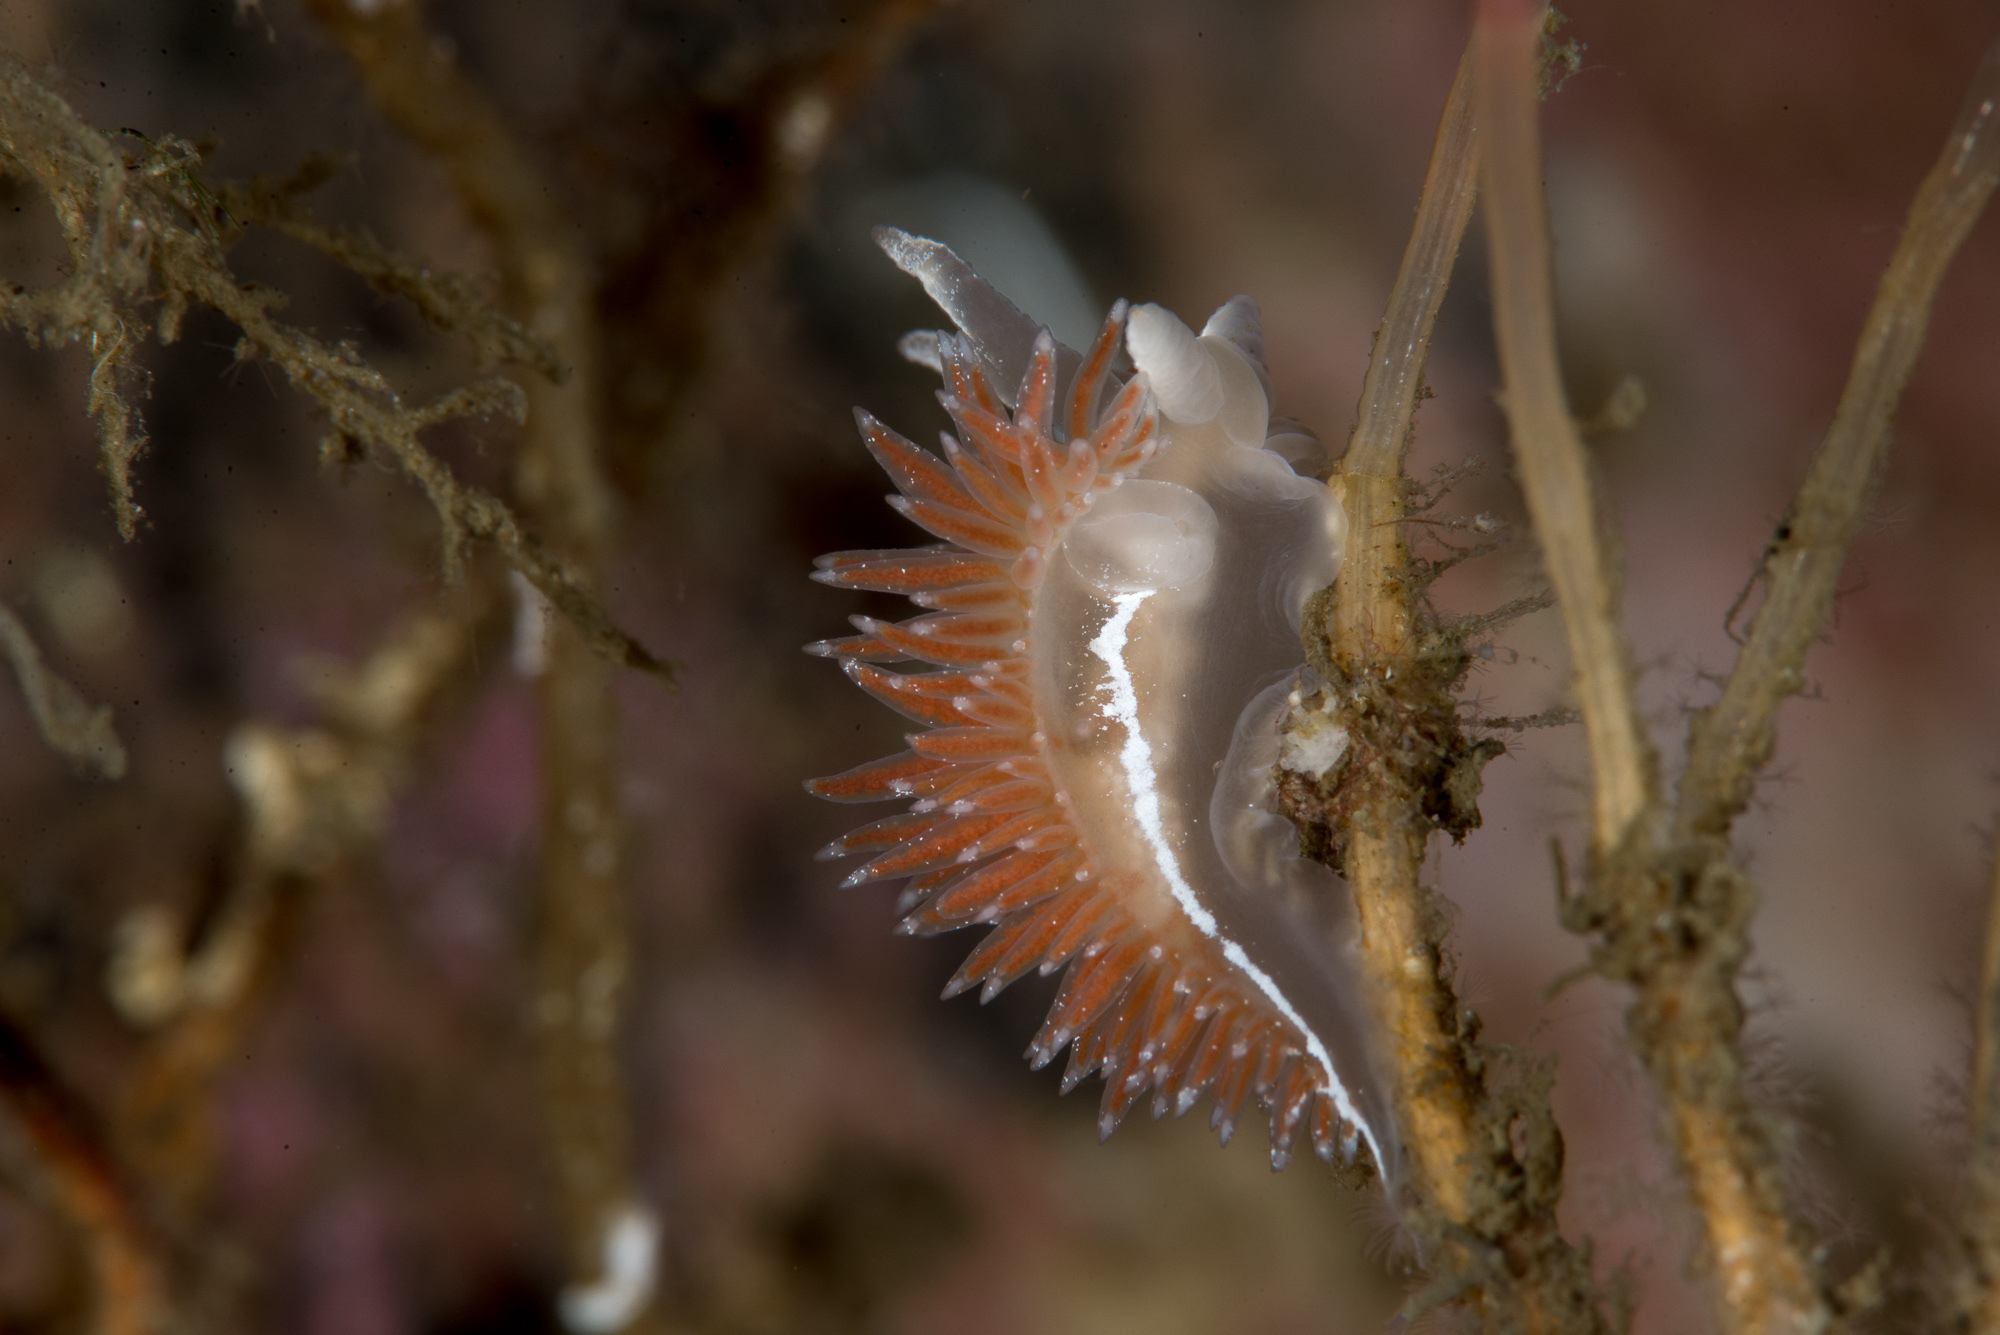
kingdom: Animalia
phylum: Mollusca
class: Gastropoda
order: Nudibranchia
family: Coryphellidae
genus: Coryphella
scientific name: Coryphella orjani
